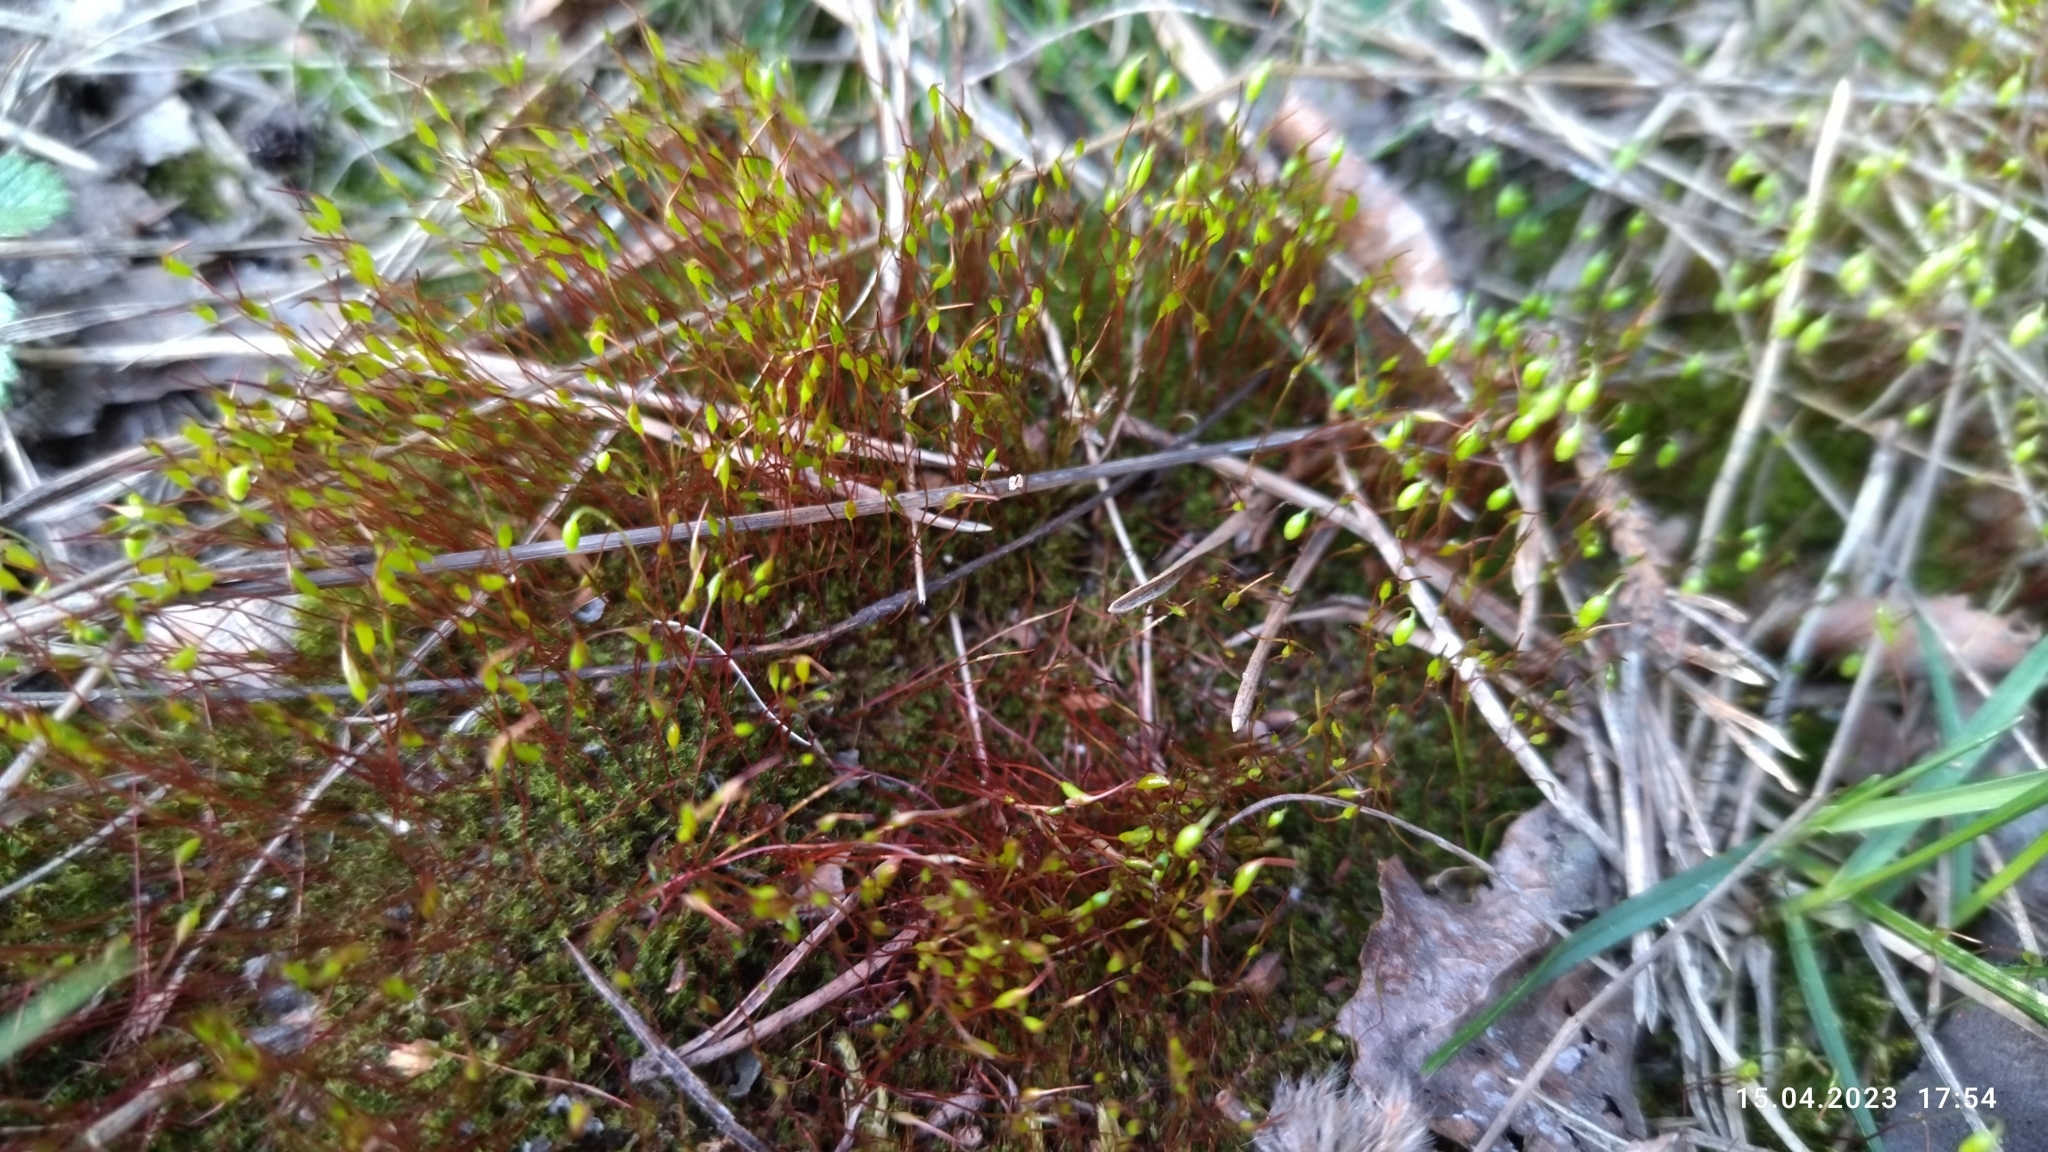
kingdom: Plantae
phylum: Bryophyta
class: Bryopsida
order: Dicranales
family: Ditrichaceae
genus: Ceratodon
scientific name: Ceratodon purpureus
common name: Redshank
